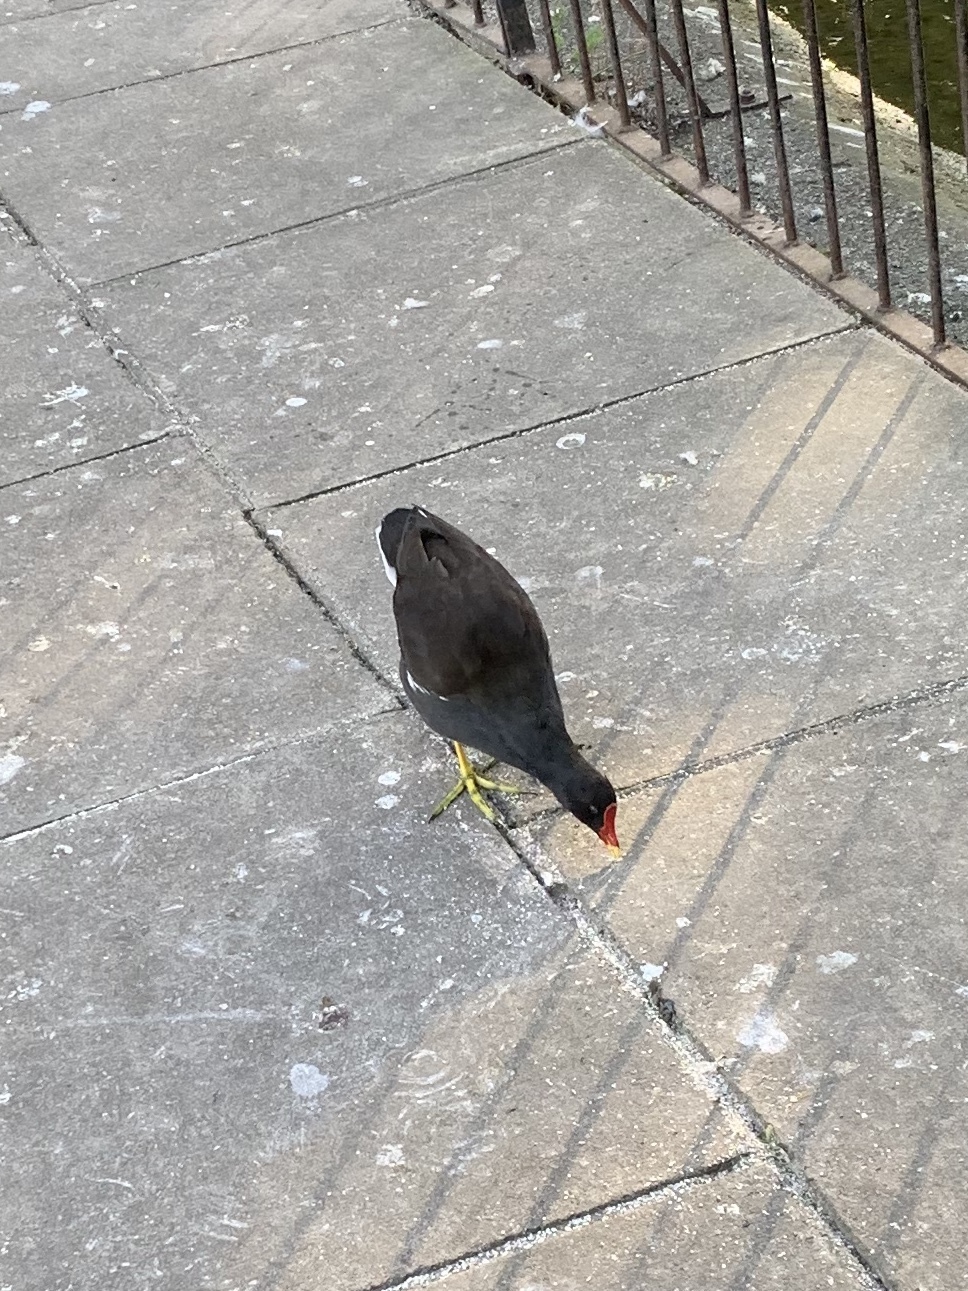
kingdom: Animalia
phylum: Chordata
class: Aves
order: Gruiformes
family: Rallidae
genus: Gallinula
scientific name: Gallinula chloropus
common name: Common moorhen
